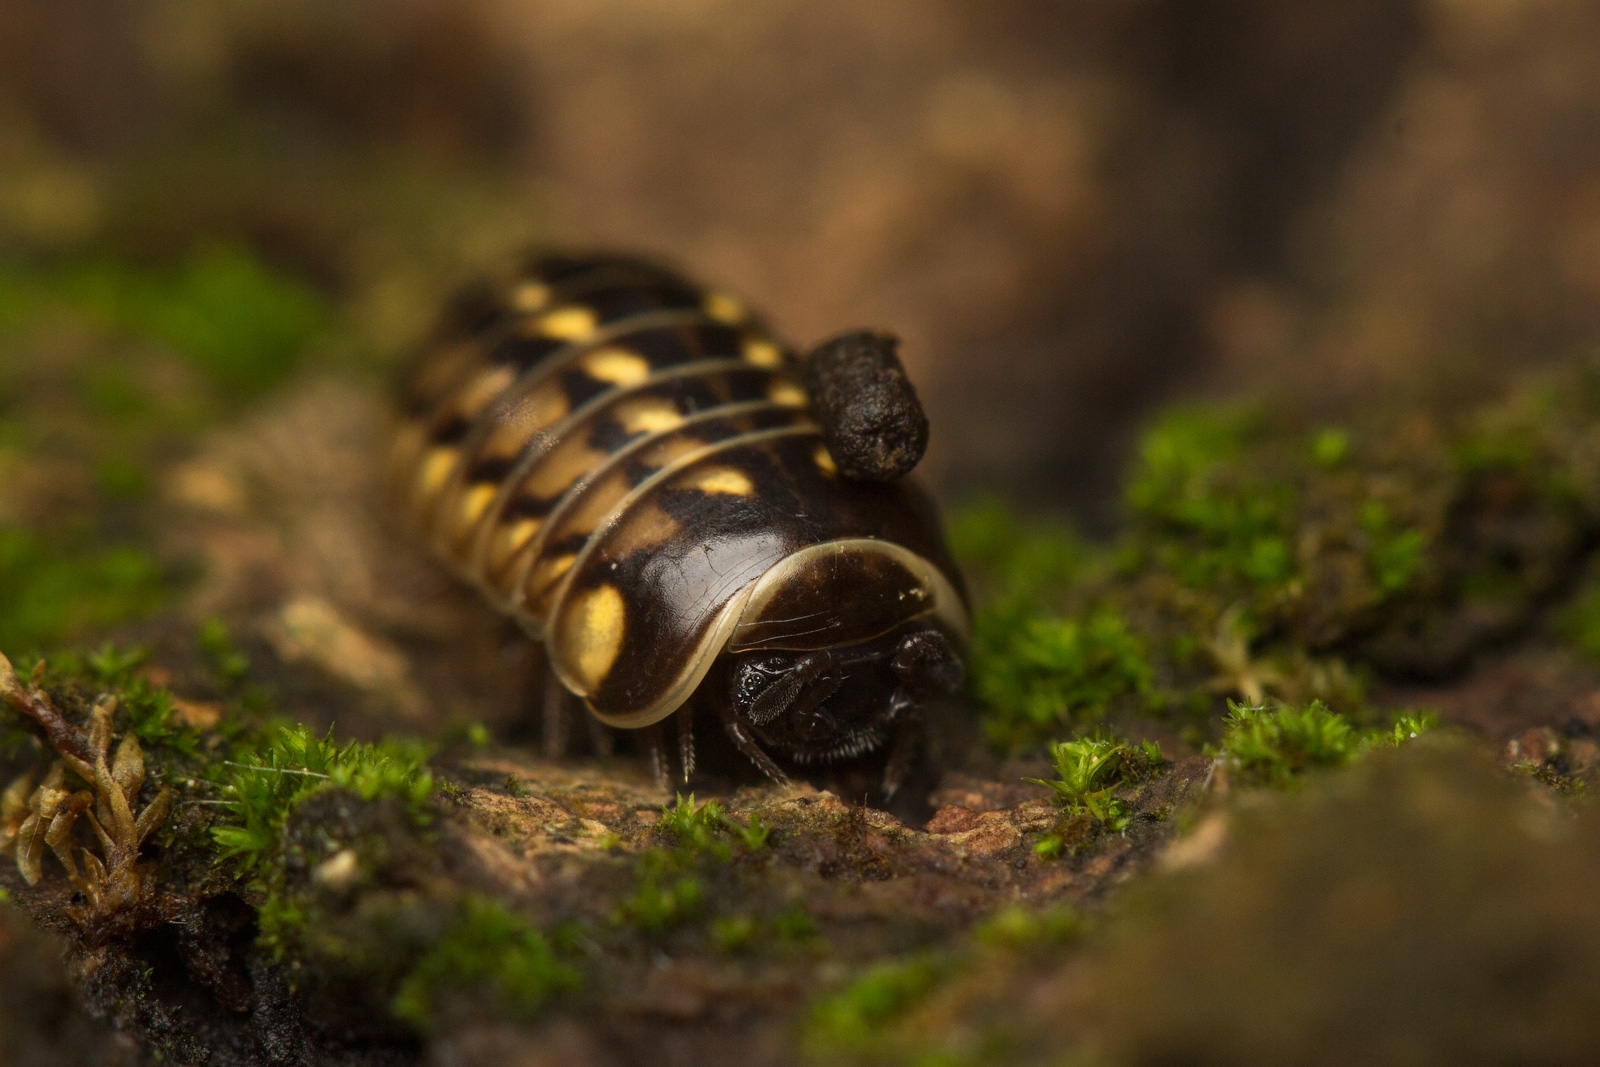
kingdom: Animalia
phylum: Arthropoda
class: Diplopoda
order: Glomerida
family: Glomeridae
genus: Glomeris
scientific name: Glomeris hexasticha
